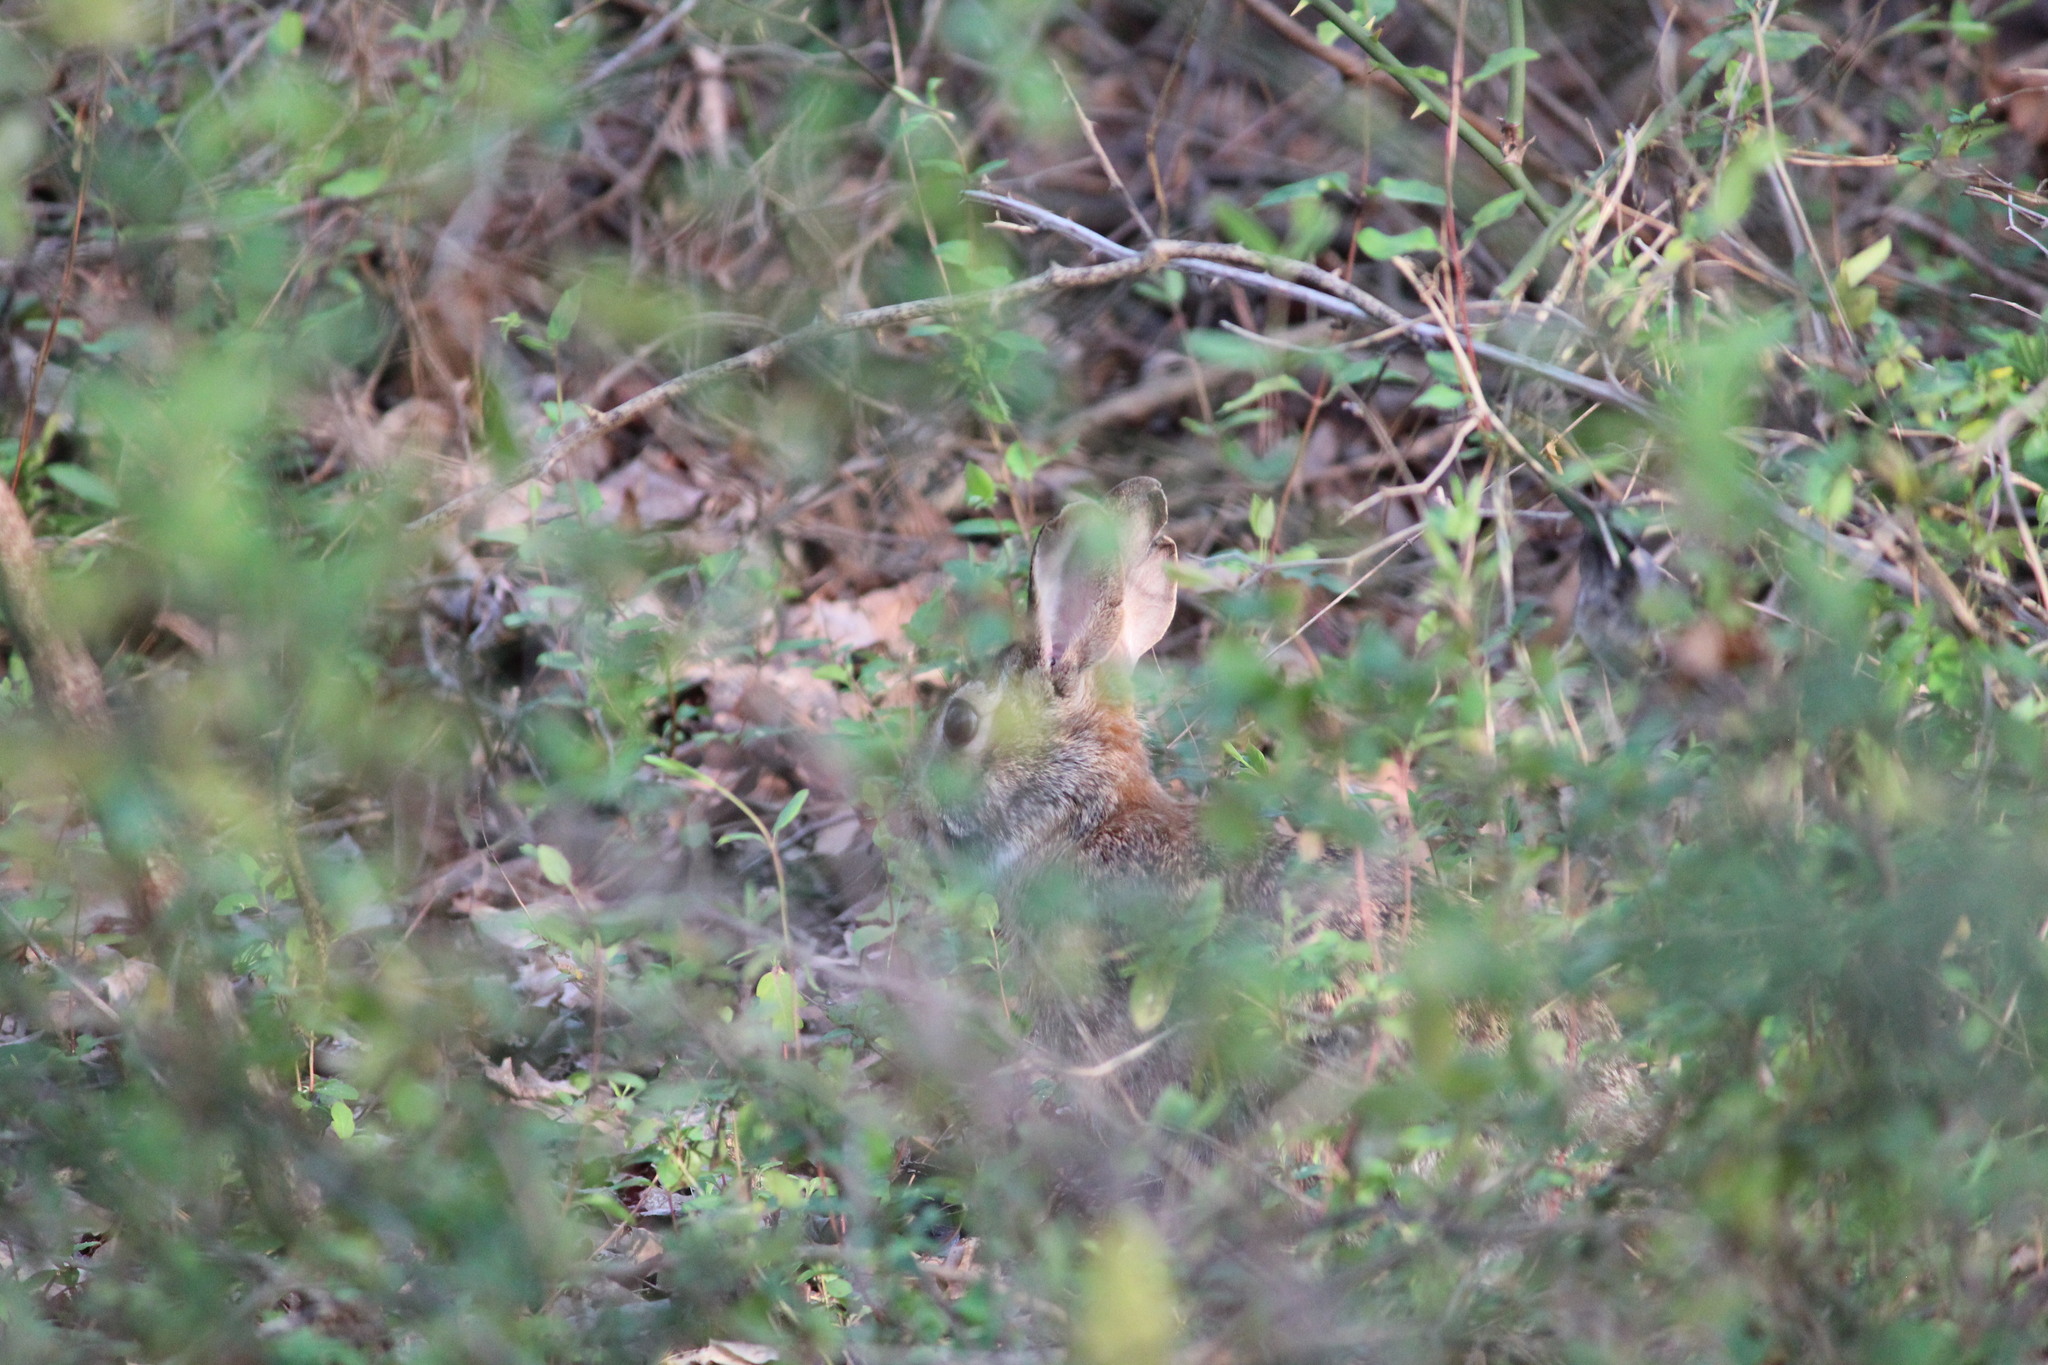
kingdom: Animalia
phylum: Chordata
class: Mammalia
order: Lagomorpha
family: Leporidae
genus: Sylvilagus
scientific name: Sylvilagus floridanus
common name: Eastern cottontail
